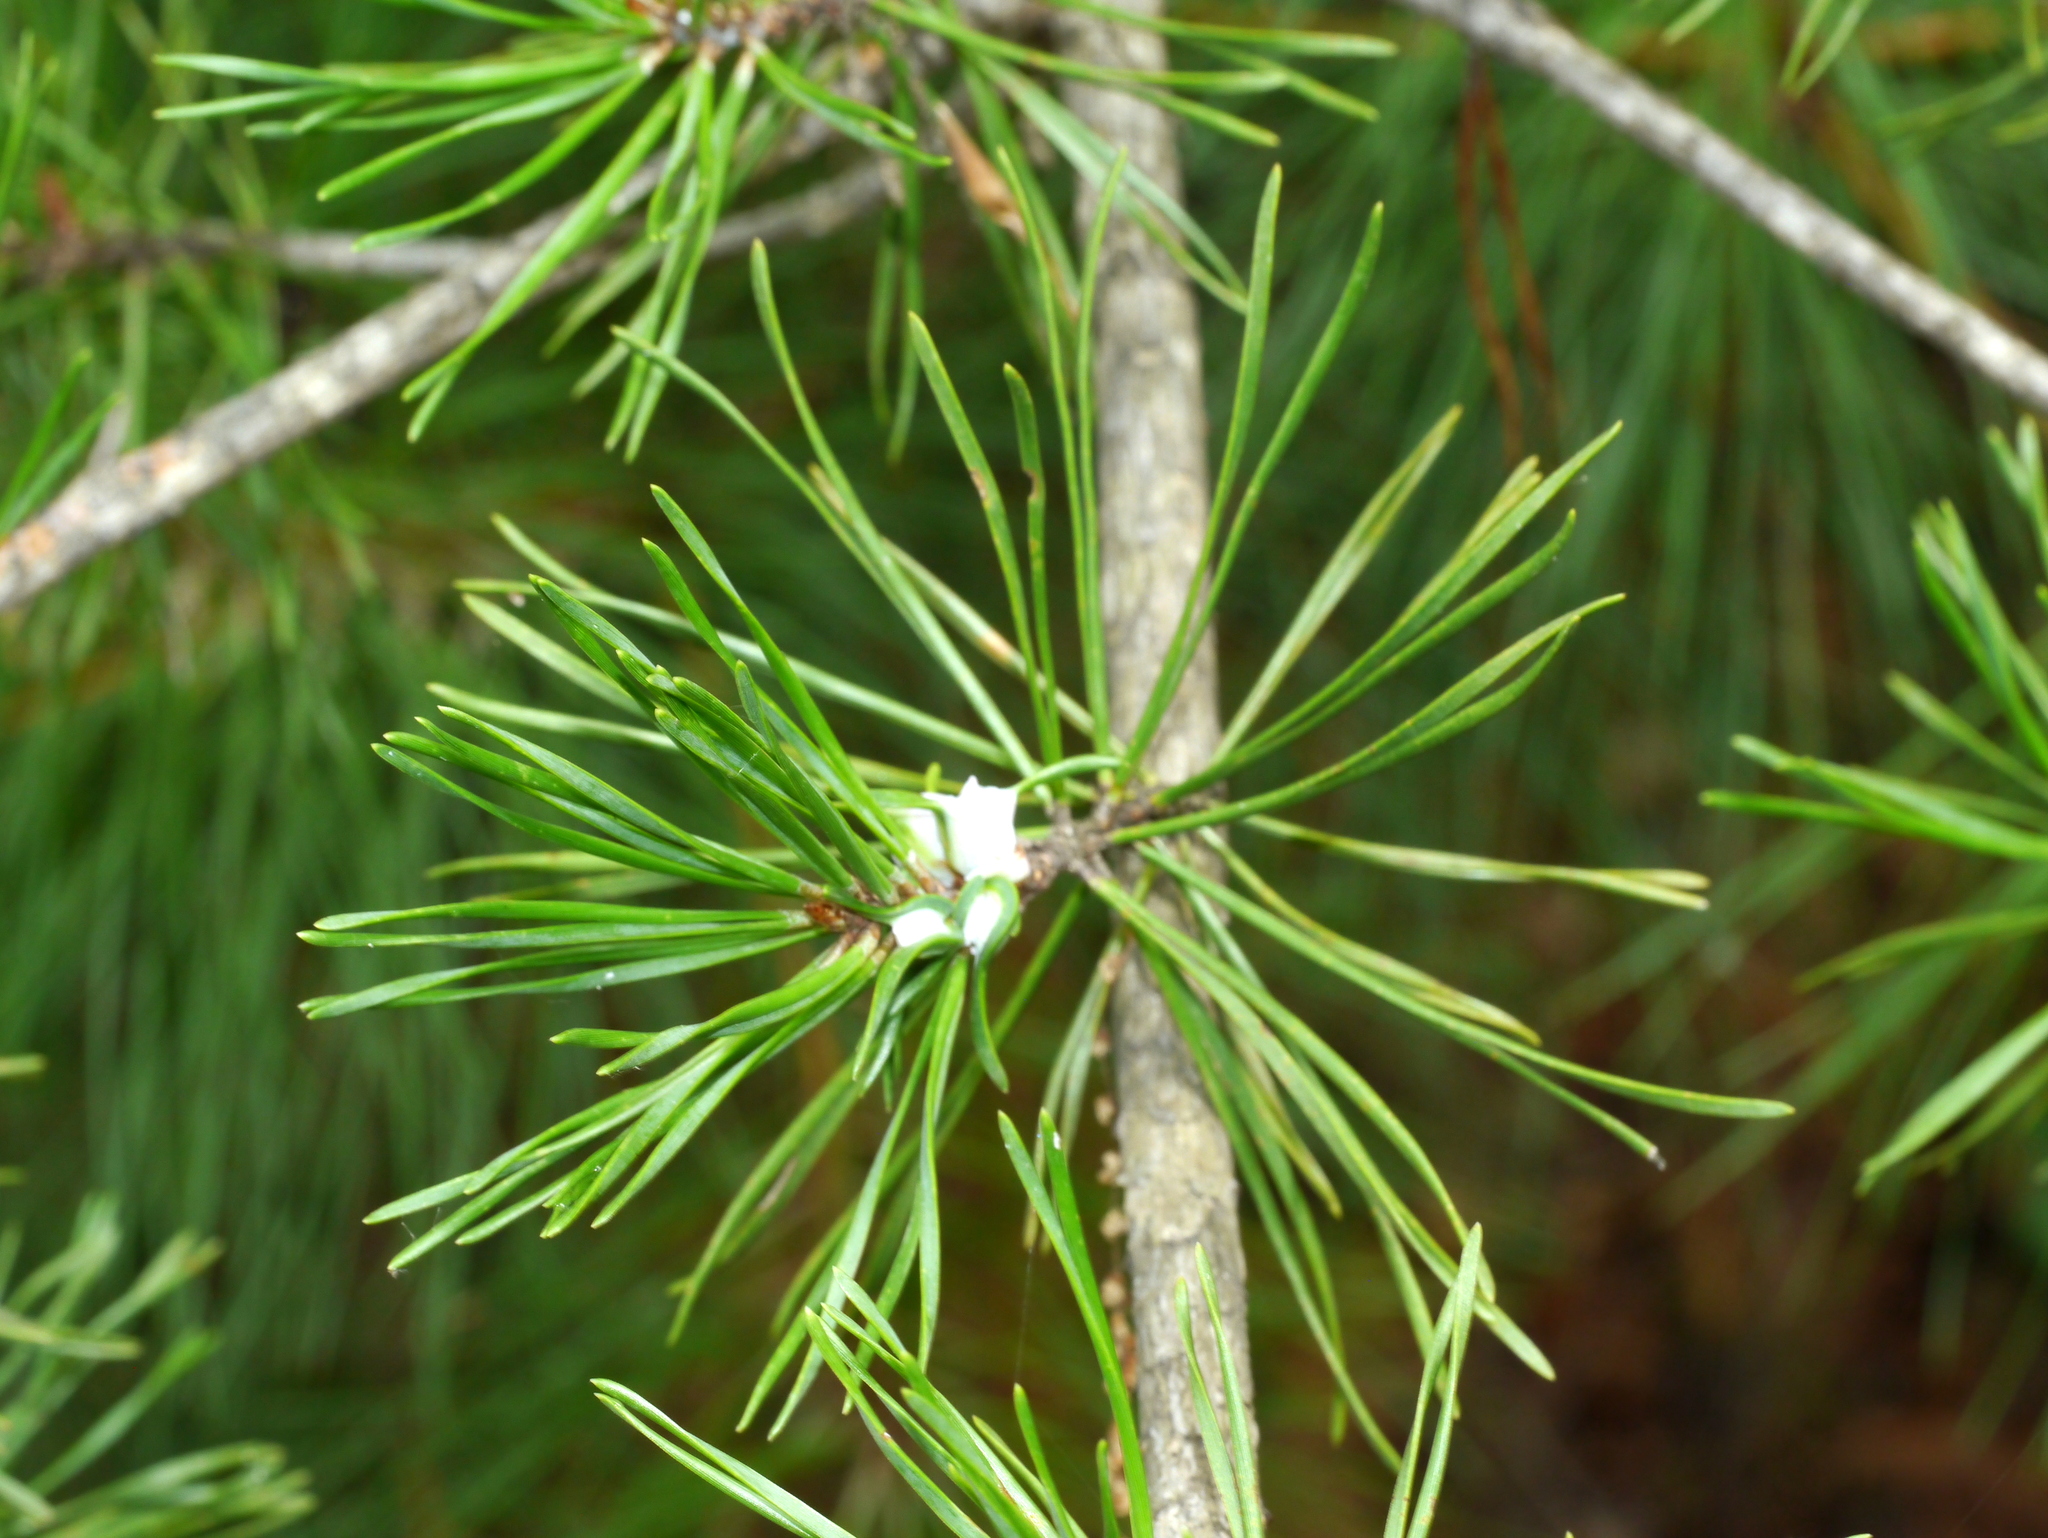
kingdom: Animalia
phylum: Arthropoda
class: Insecta
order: Diptera
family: Cecidomyiidae
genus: Thecodiplosis
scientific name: Thecodiplosis brachynteroides
